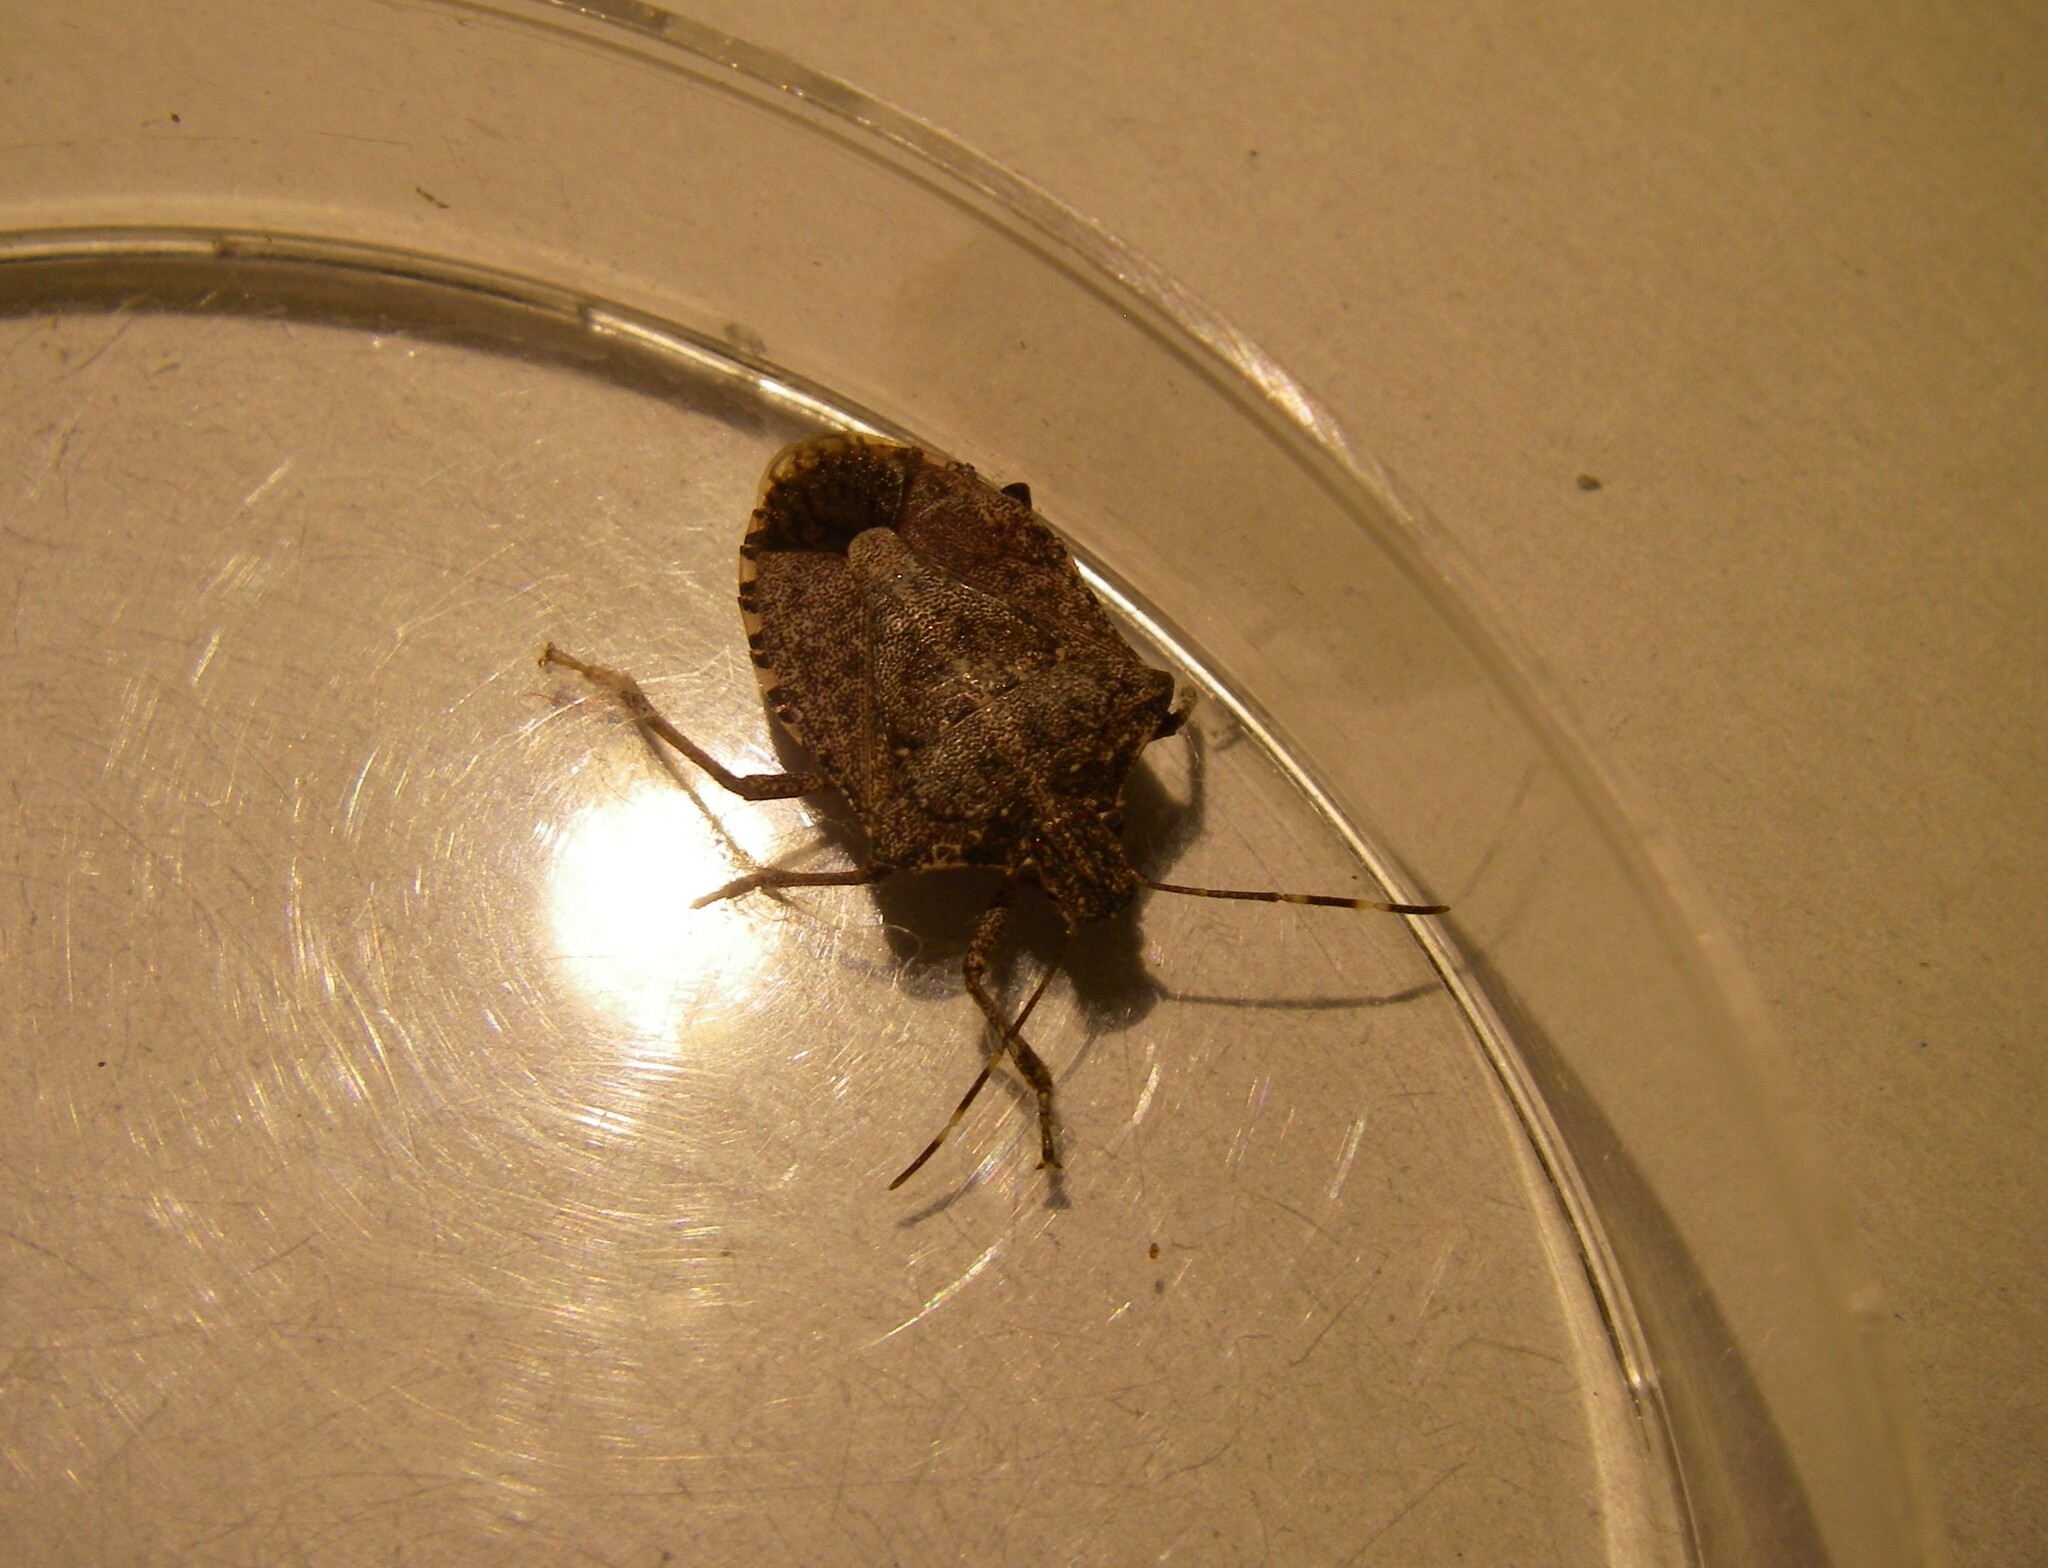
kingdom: Animalia
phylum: Arthropoda
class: Insecta
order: Hemiptera
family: Pentatomidae
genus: Halyomorpha
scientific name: Halyomorpha halys
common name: Brown marmorated stink bug
